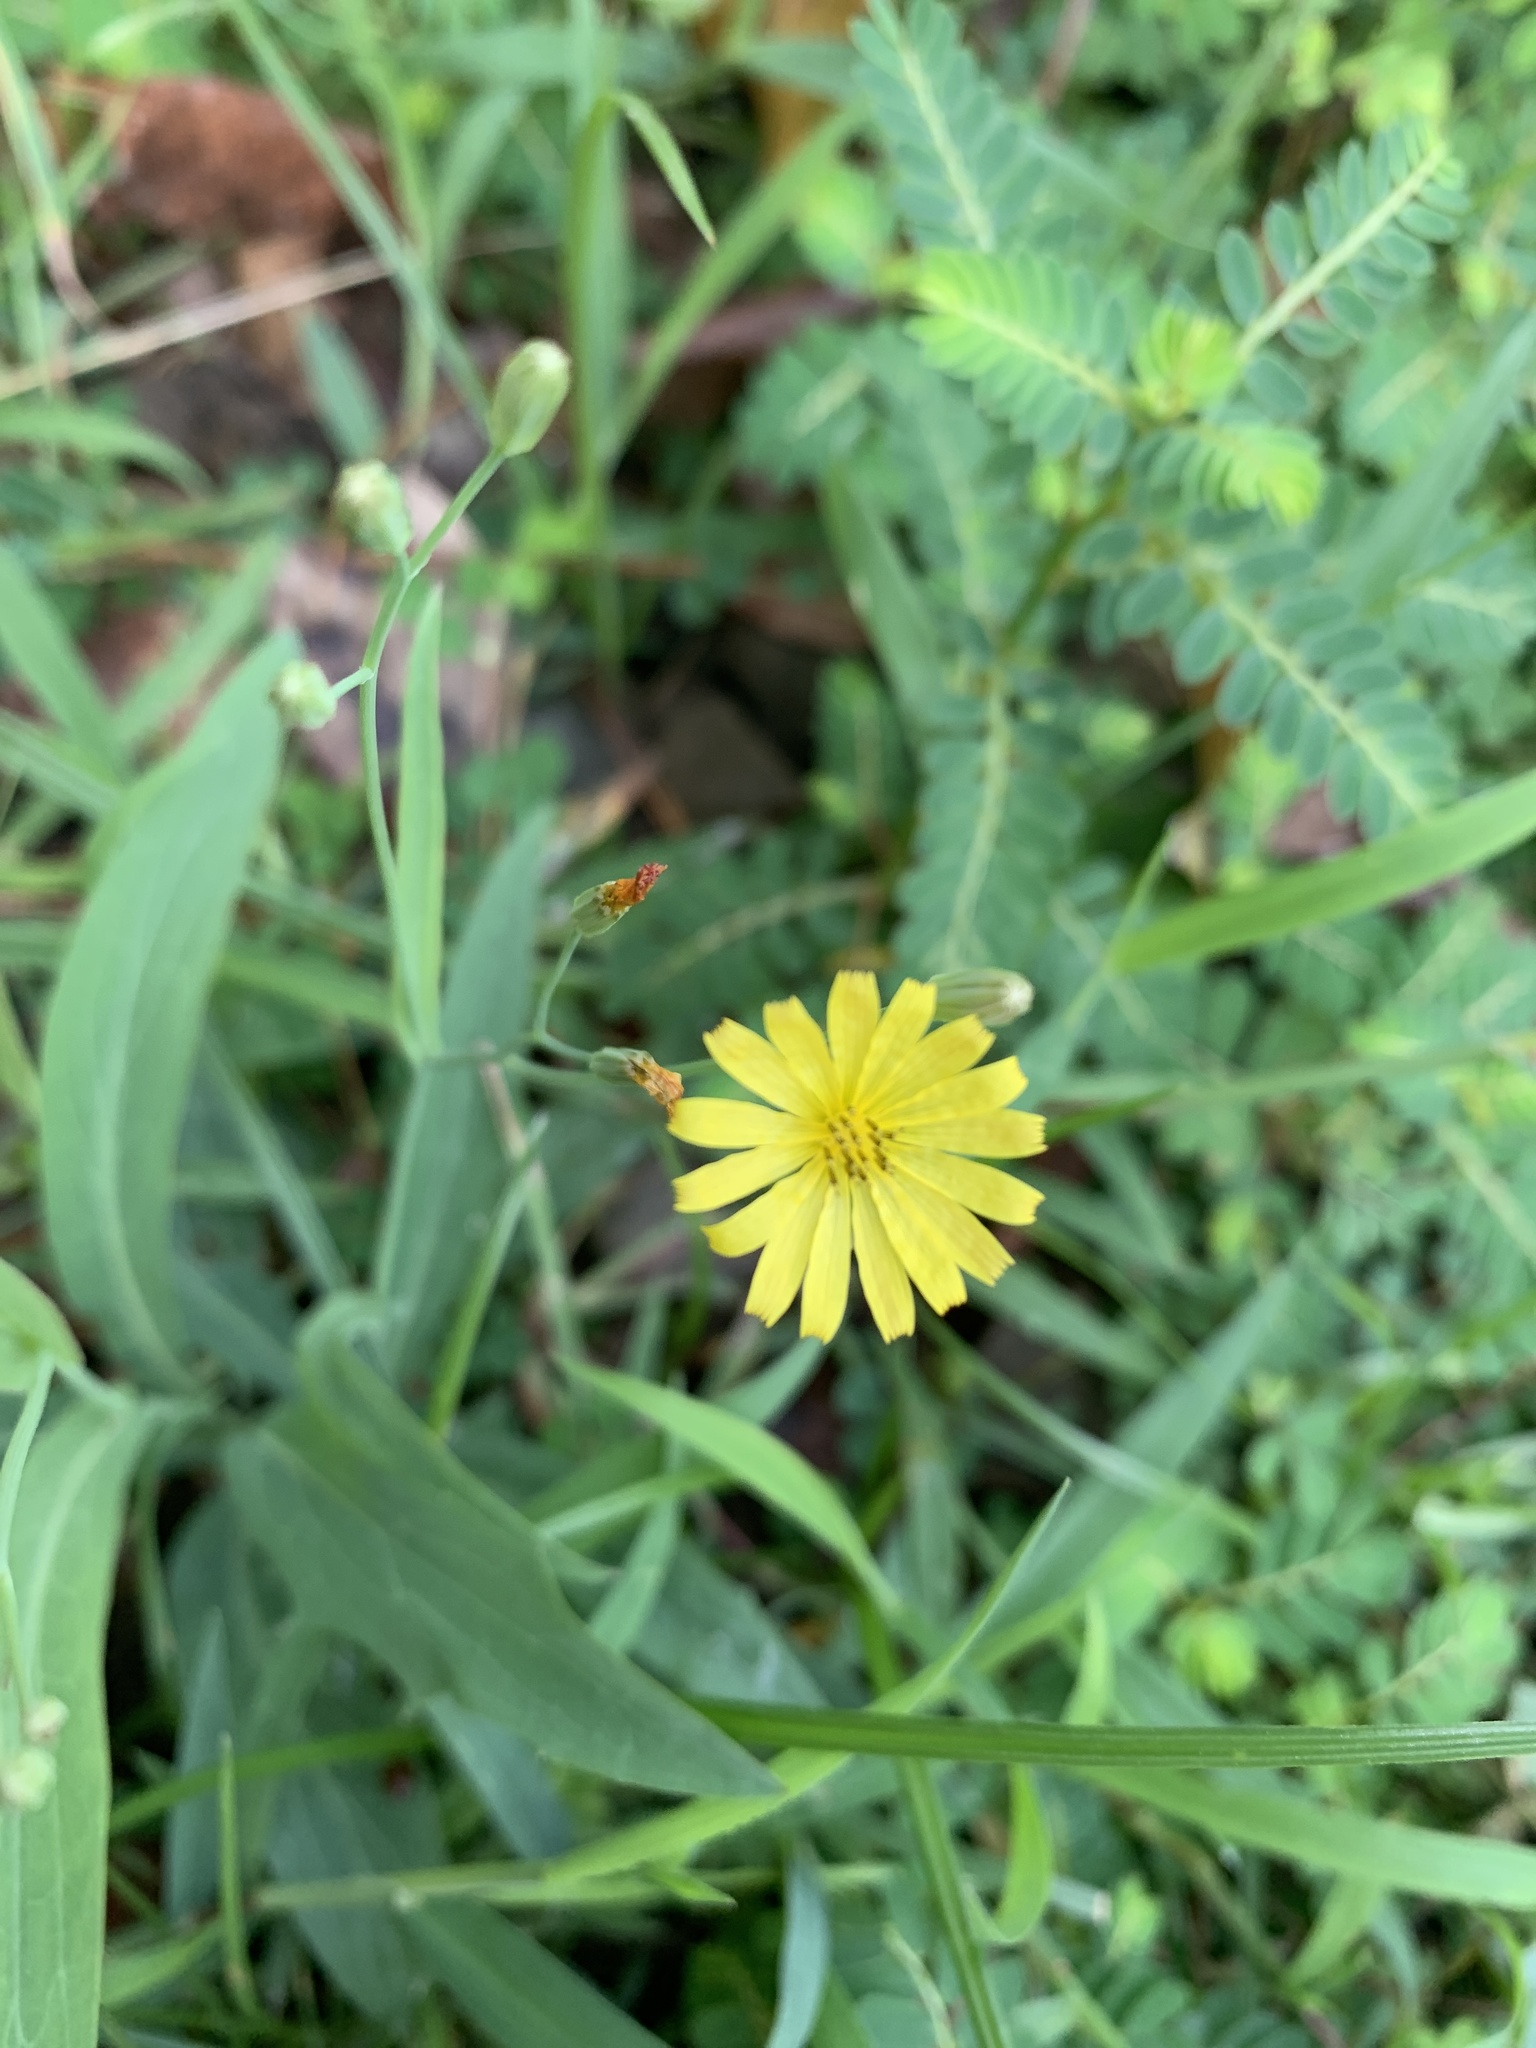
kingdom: Plantae
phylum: Tracheophyta
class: Magnoliopsida
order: Asterales
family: Asteraceae
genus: Ixeris
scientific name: Ixeris chinensis
